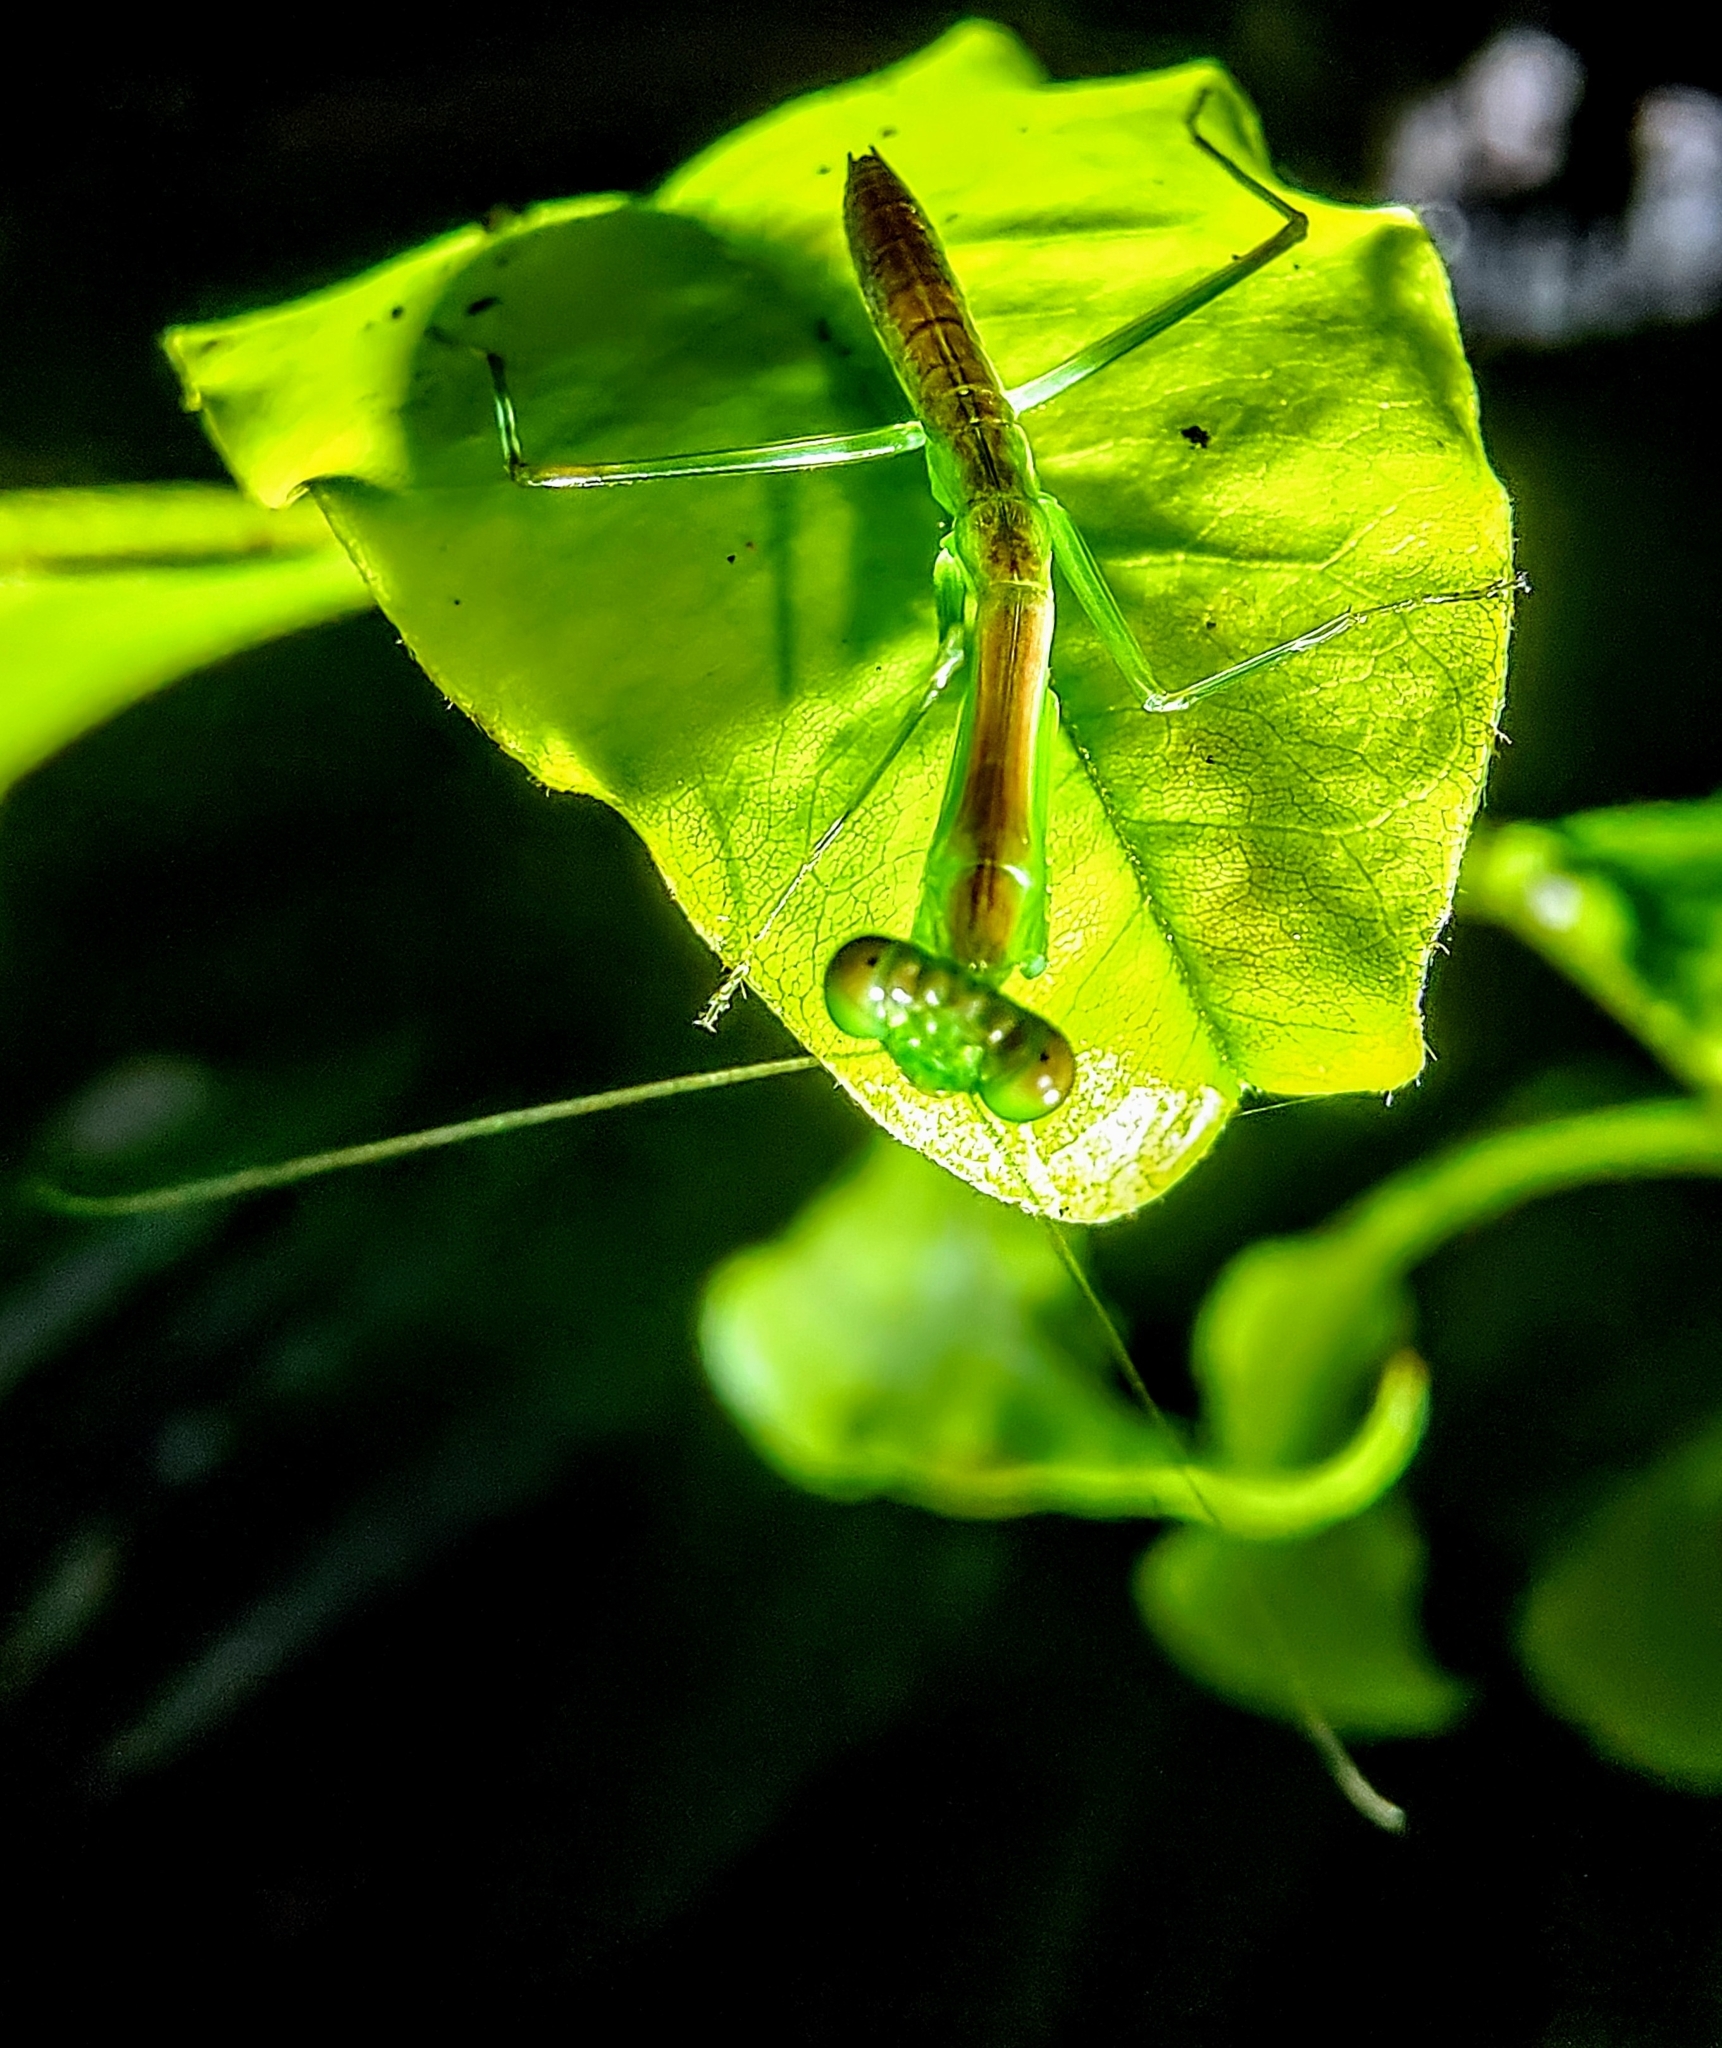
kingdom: Animalia
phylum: Arthropoda
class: Insecta
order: Mantodea
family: Mantidae
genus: Hierodula
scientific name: Hierodula venosa
